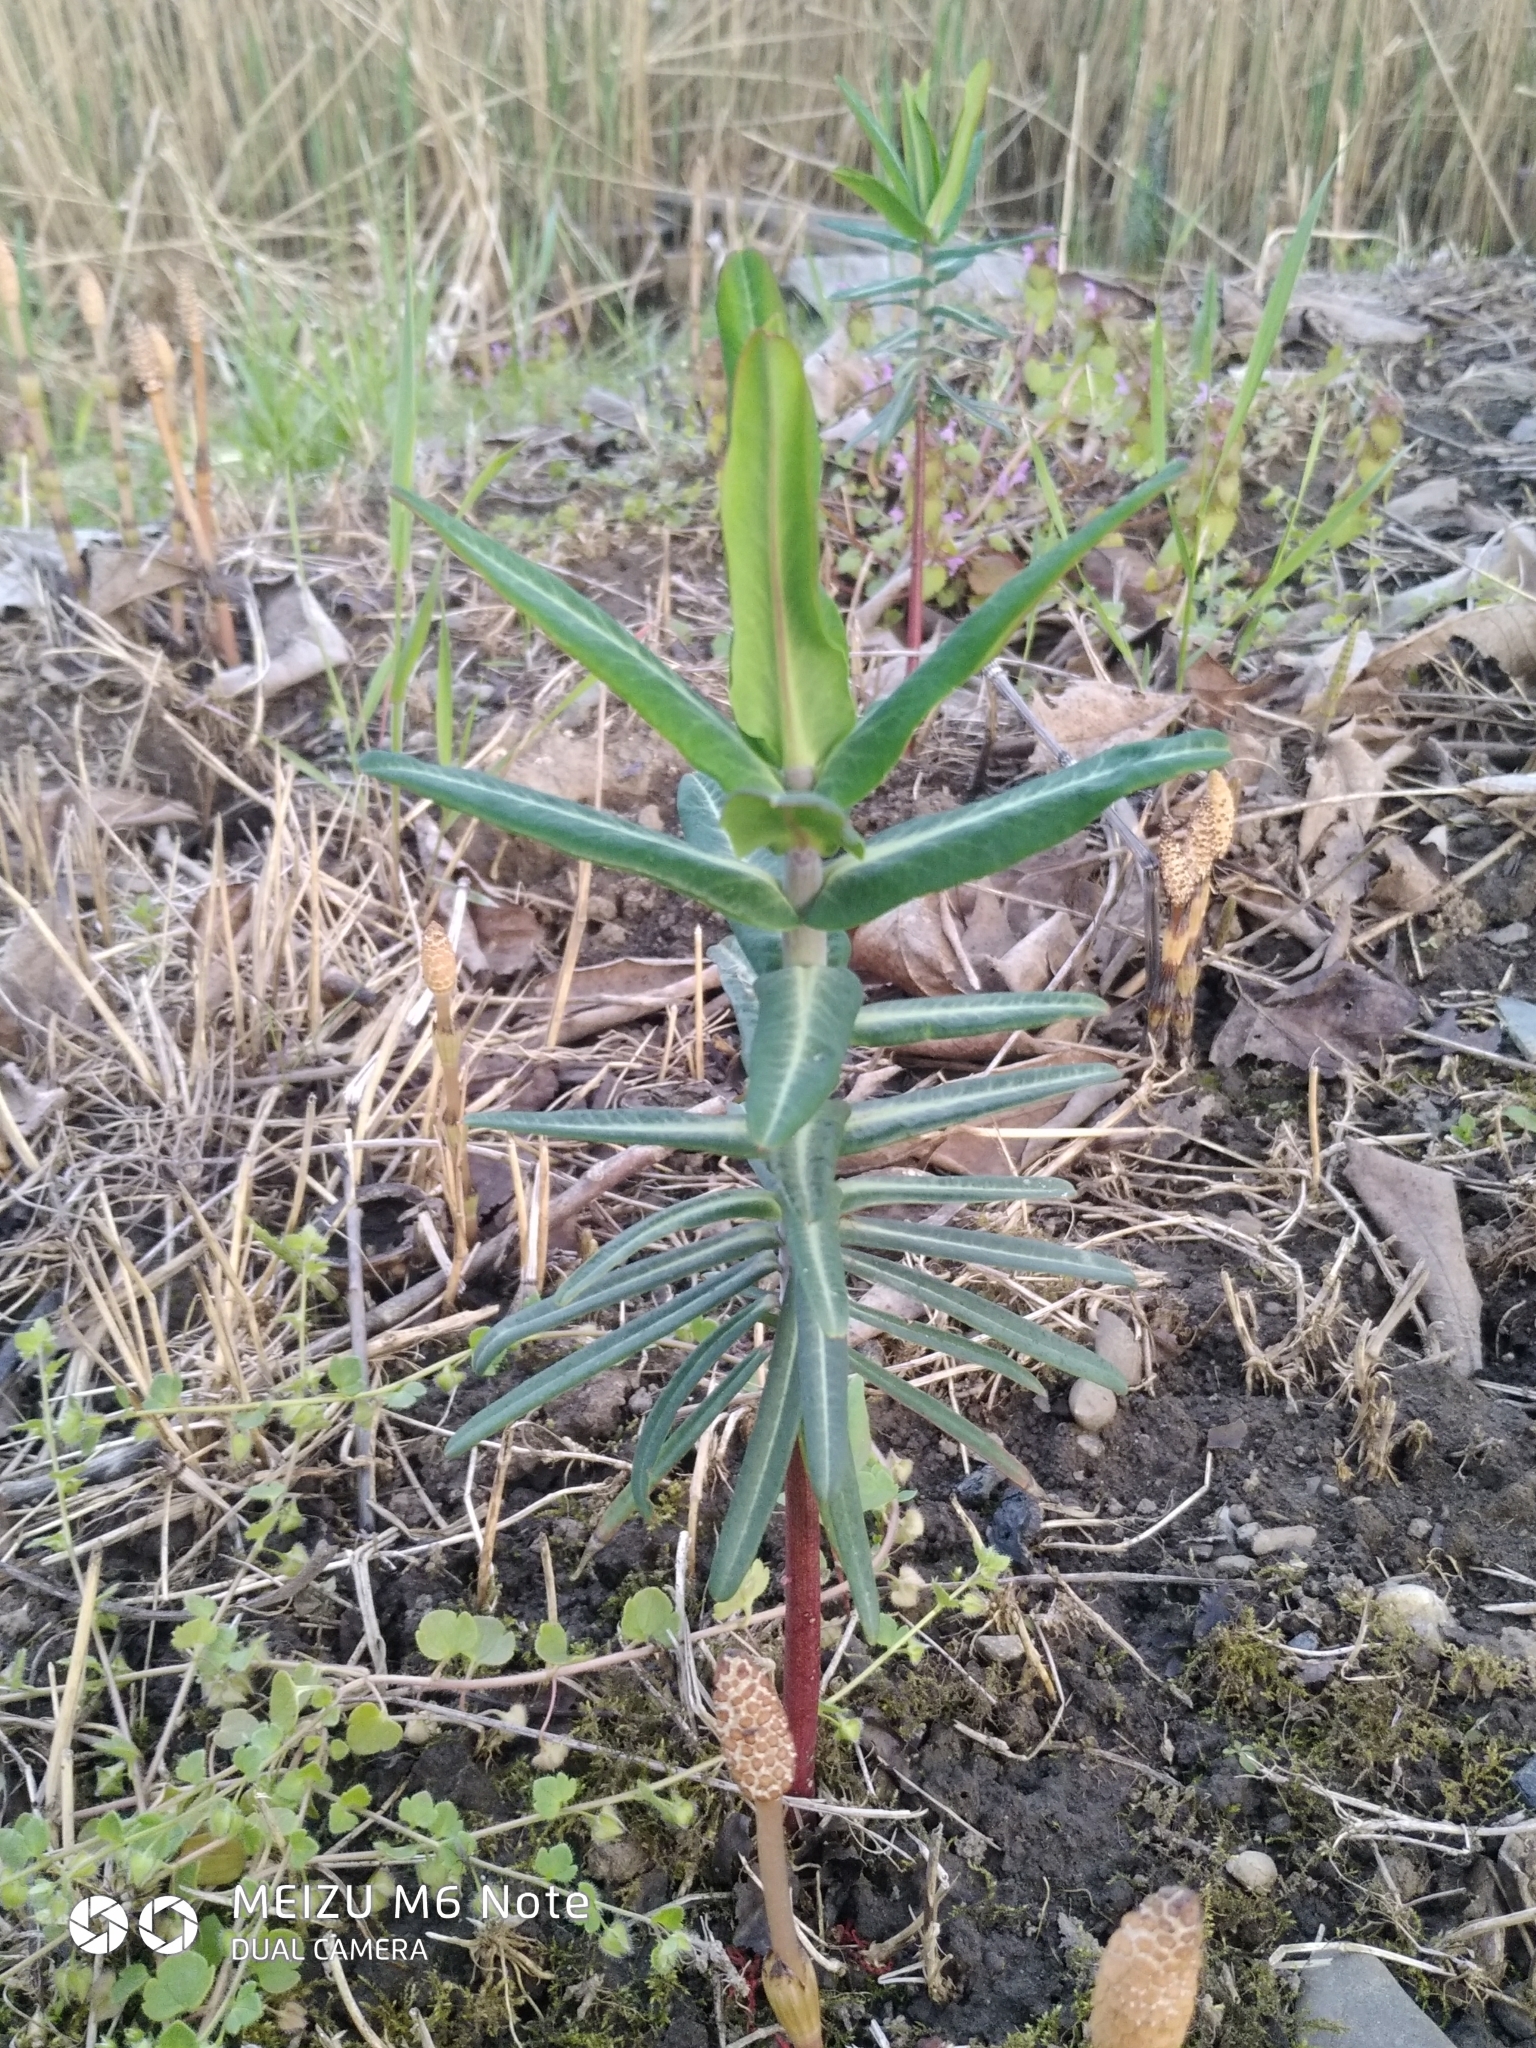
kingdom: Plantae
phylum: Tracheophyta
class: Magnoliopsida
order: Malpighiales
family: Euphorbiaceae
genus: Euphorbia
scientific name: Euphorbia lathyris
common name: Caper spurge
